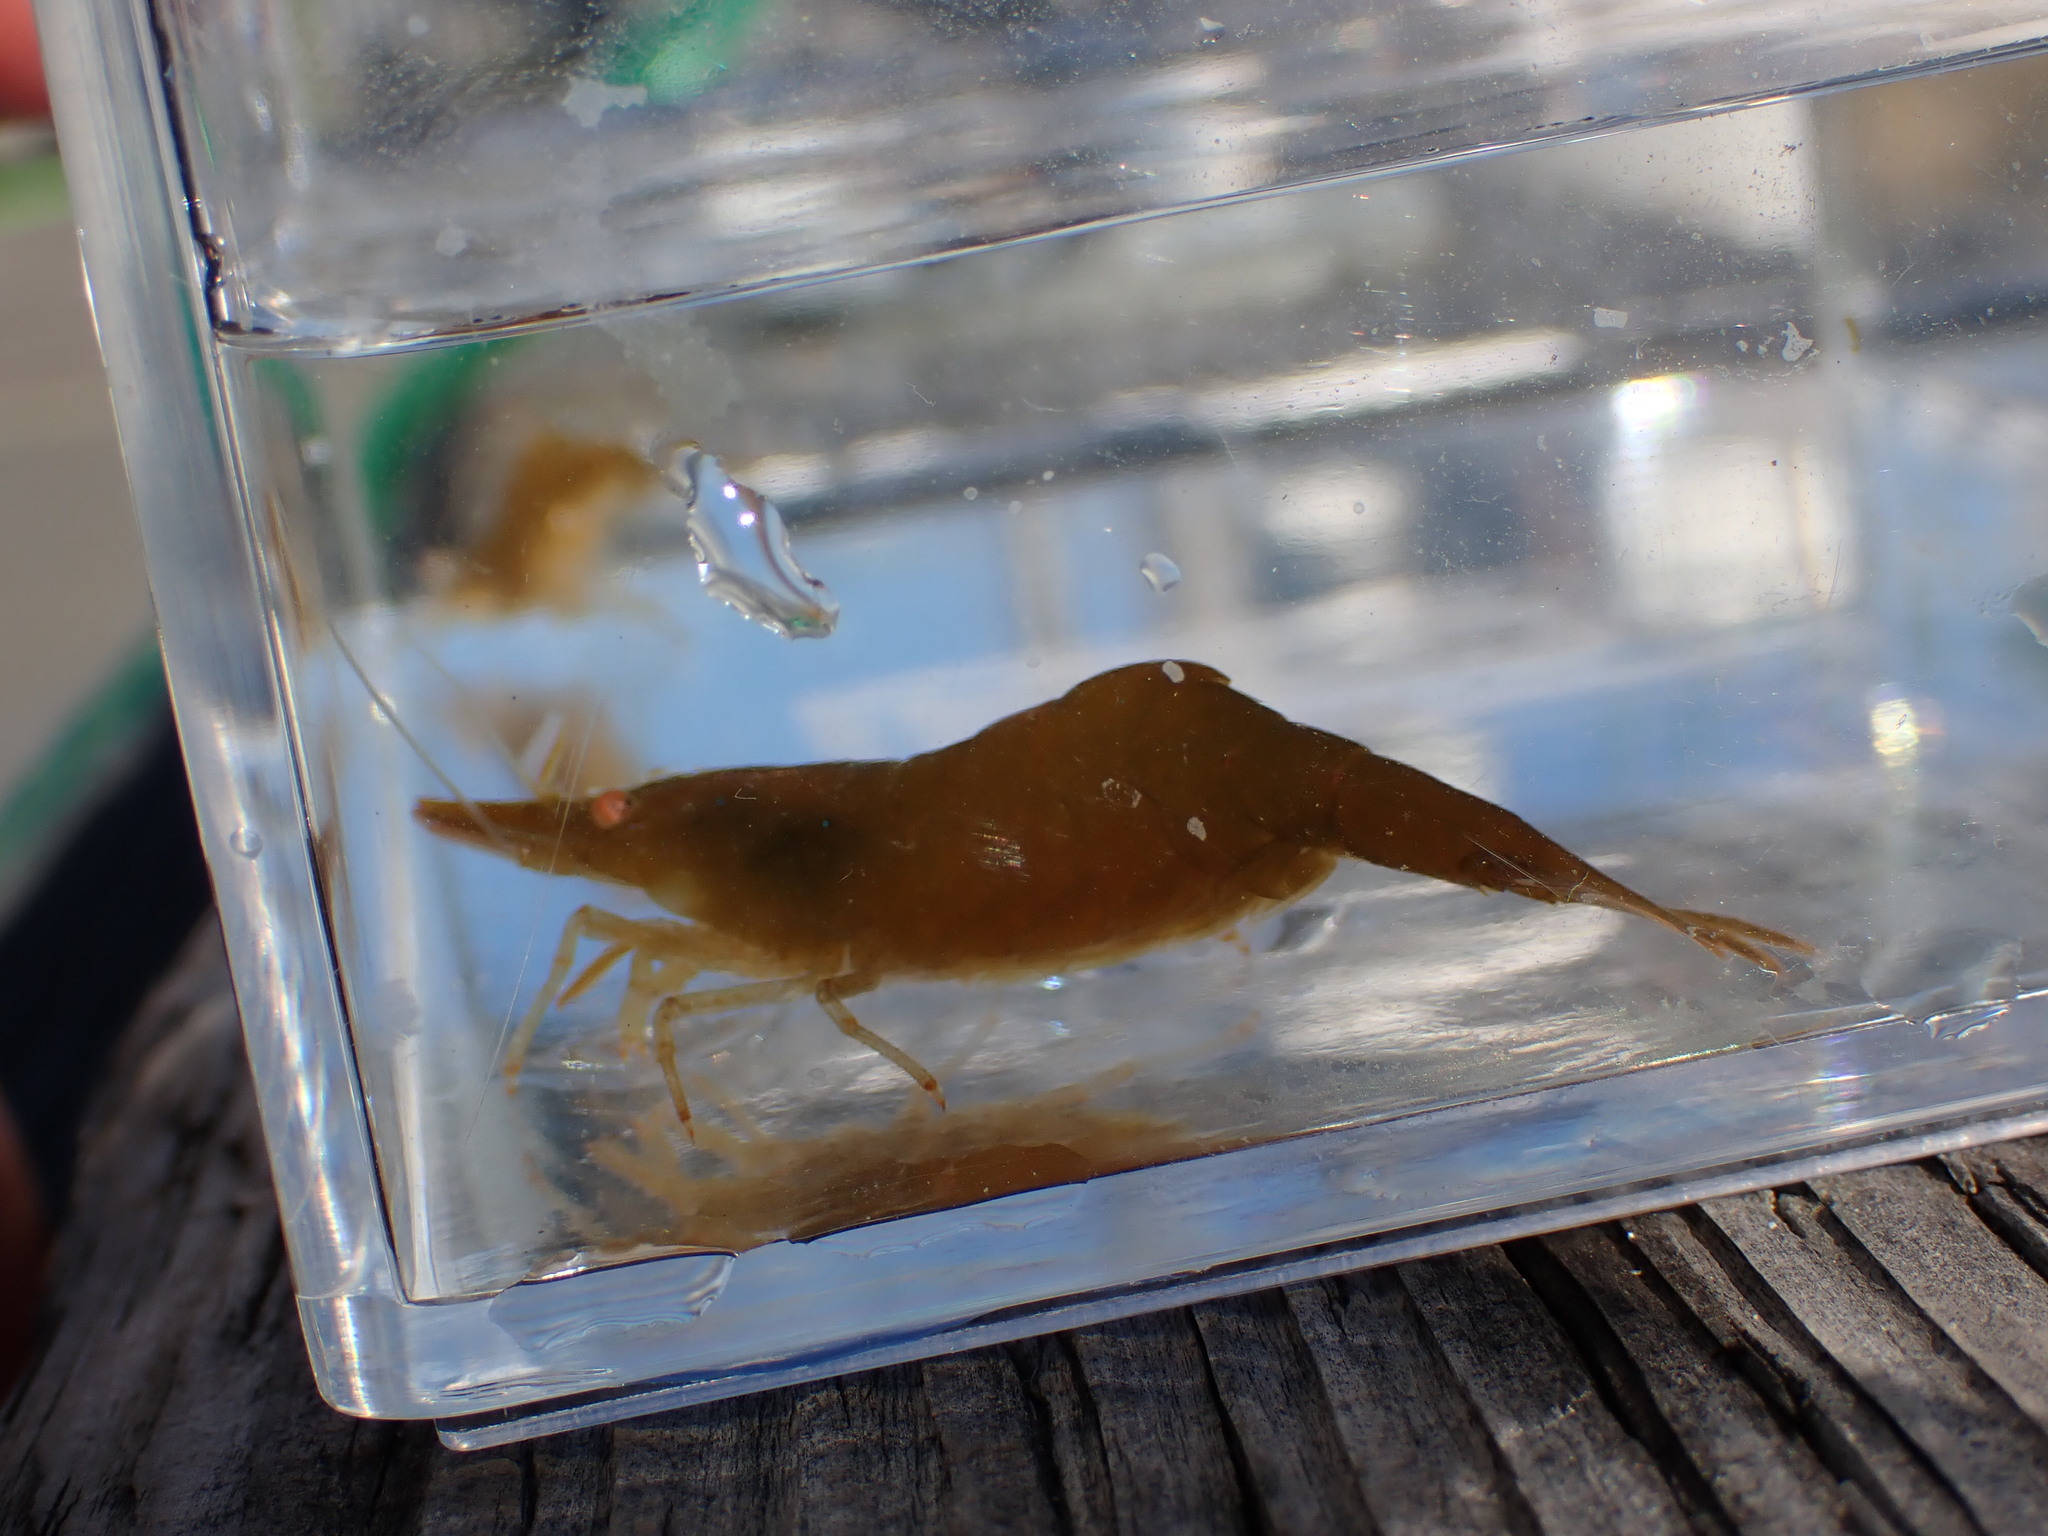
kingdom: Animalia
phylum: Arthropoda
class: Malacostraca
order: Decapoda
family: Thoridae
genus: Heptacarpus
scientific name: Heptacarpus stylus
